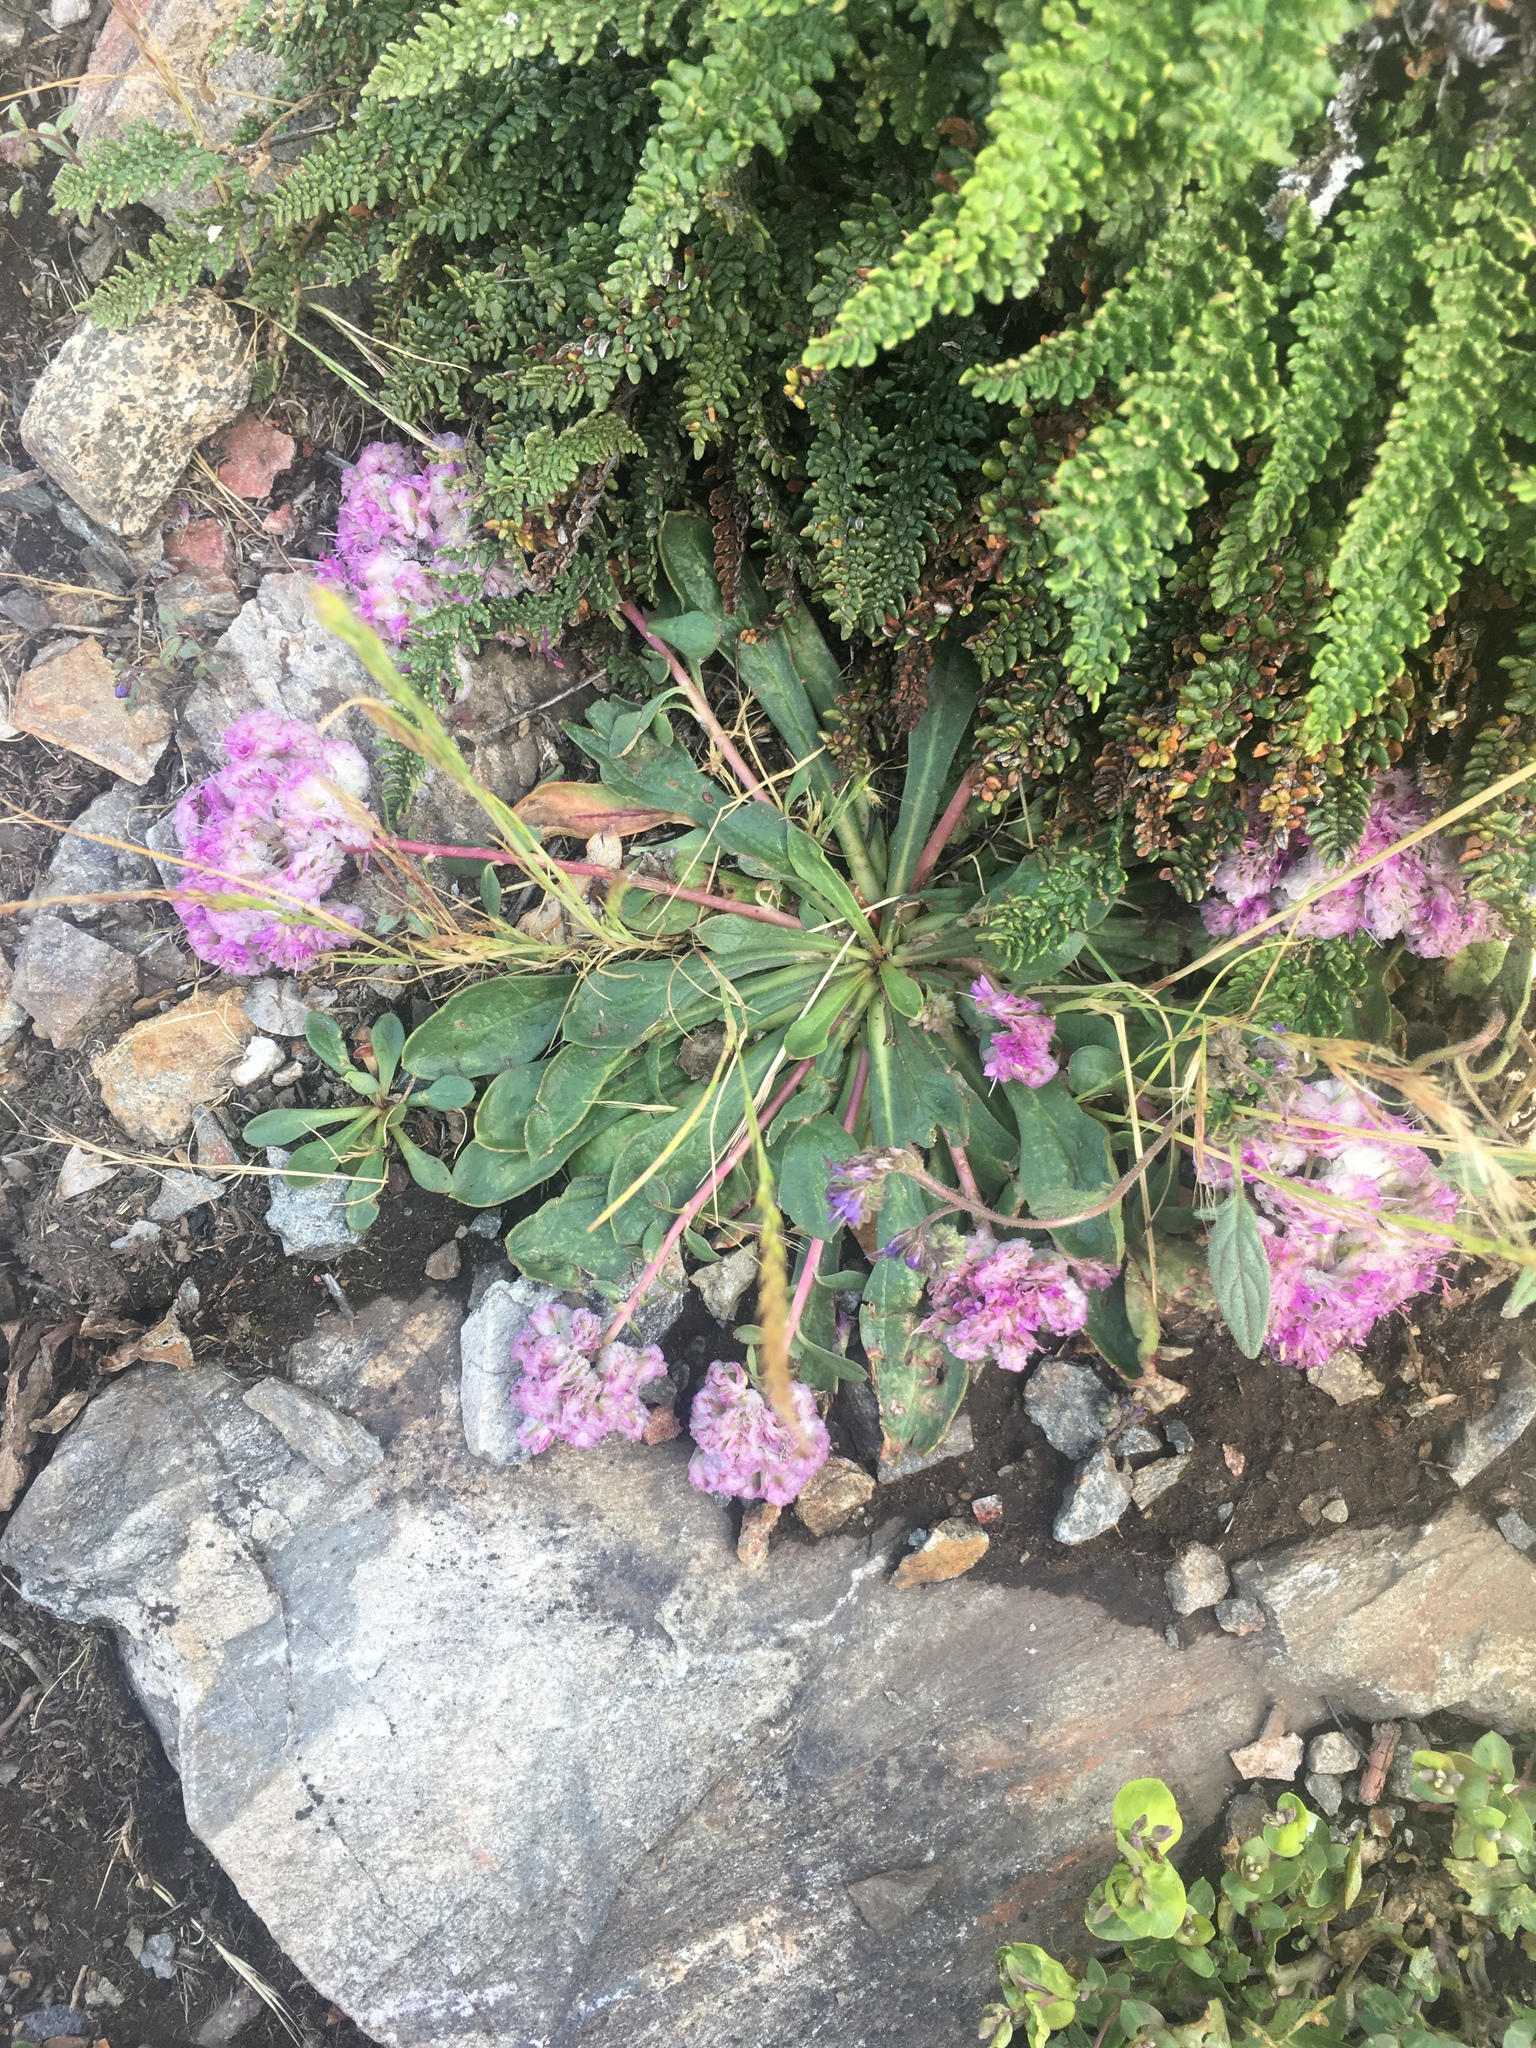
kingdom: Plantae
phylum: Tracheophyta
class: Magnoliopsida
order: Caryophyllales
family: Montiaceae
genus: Calyptridium
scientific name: Calyptridium monospermum
